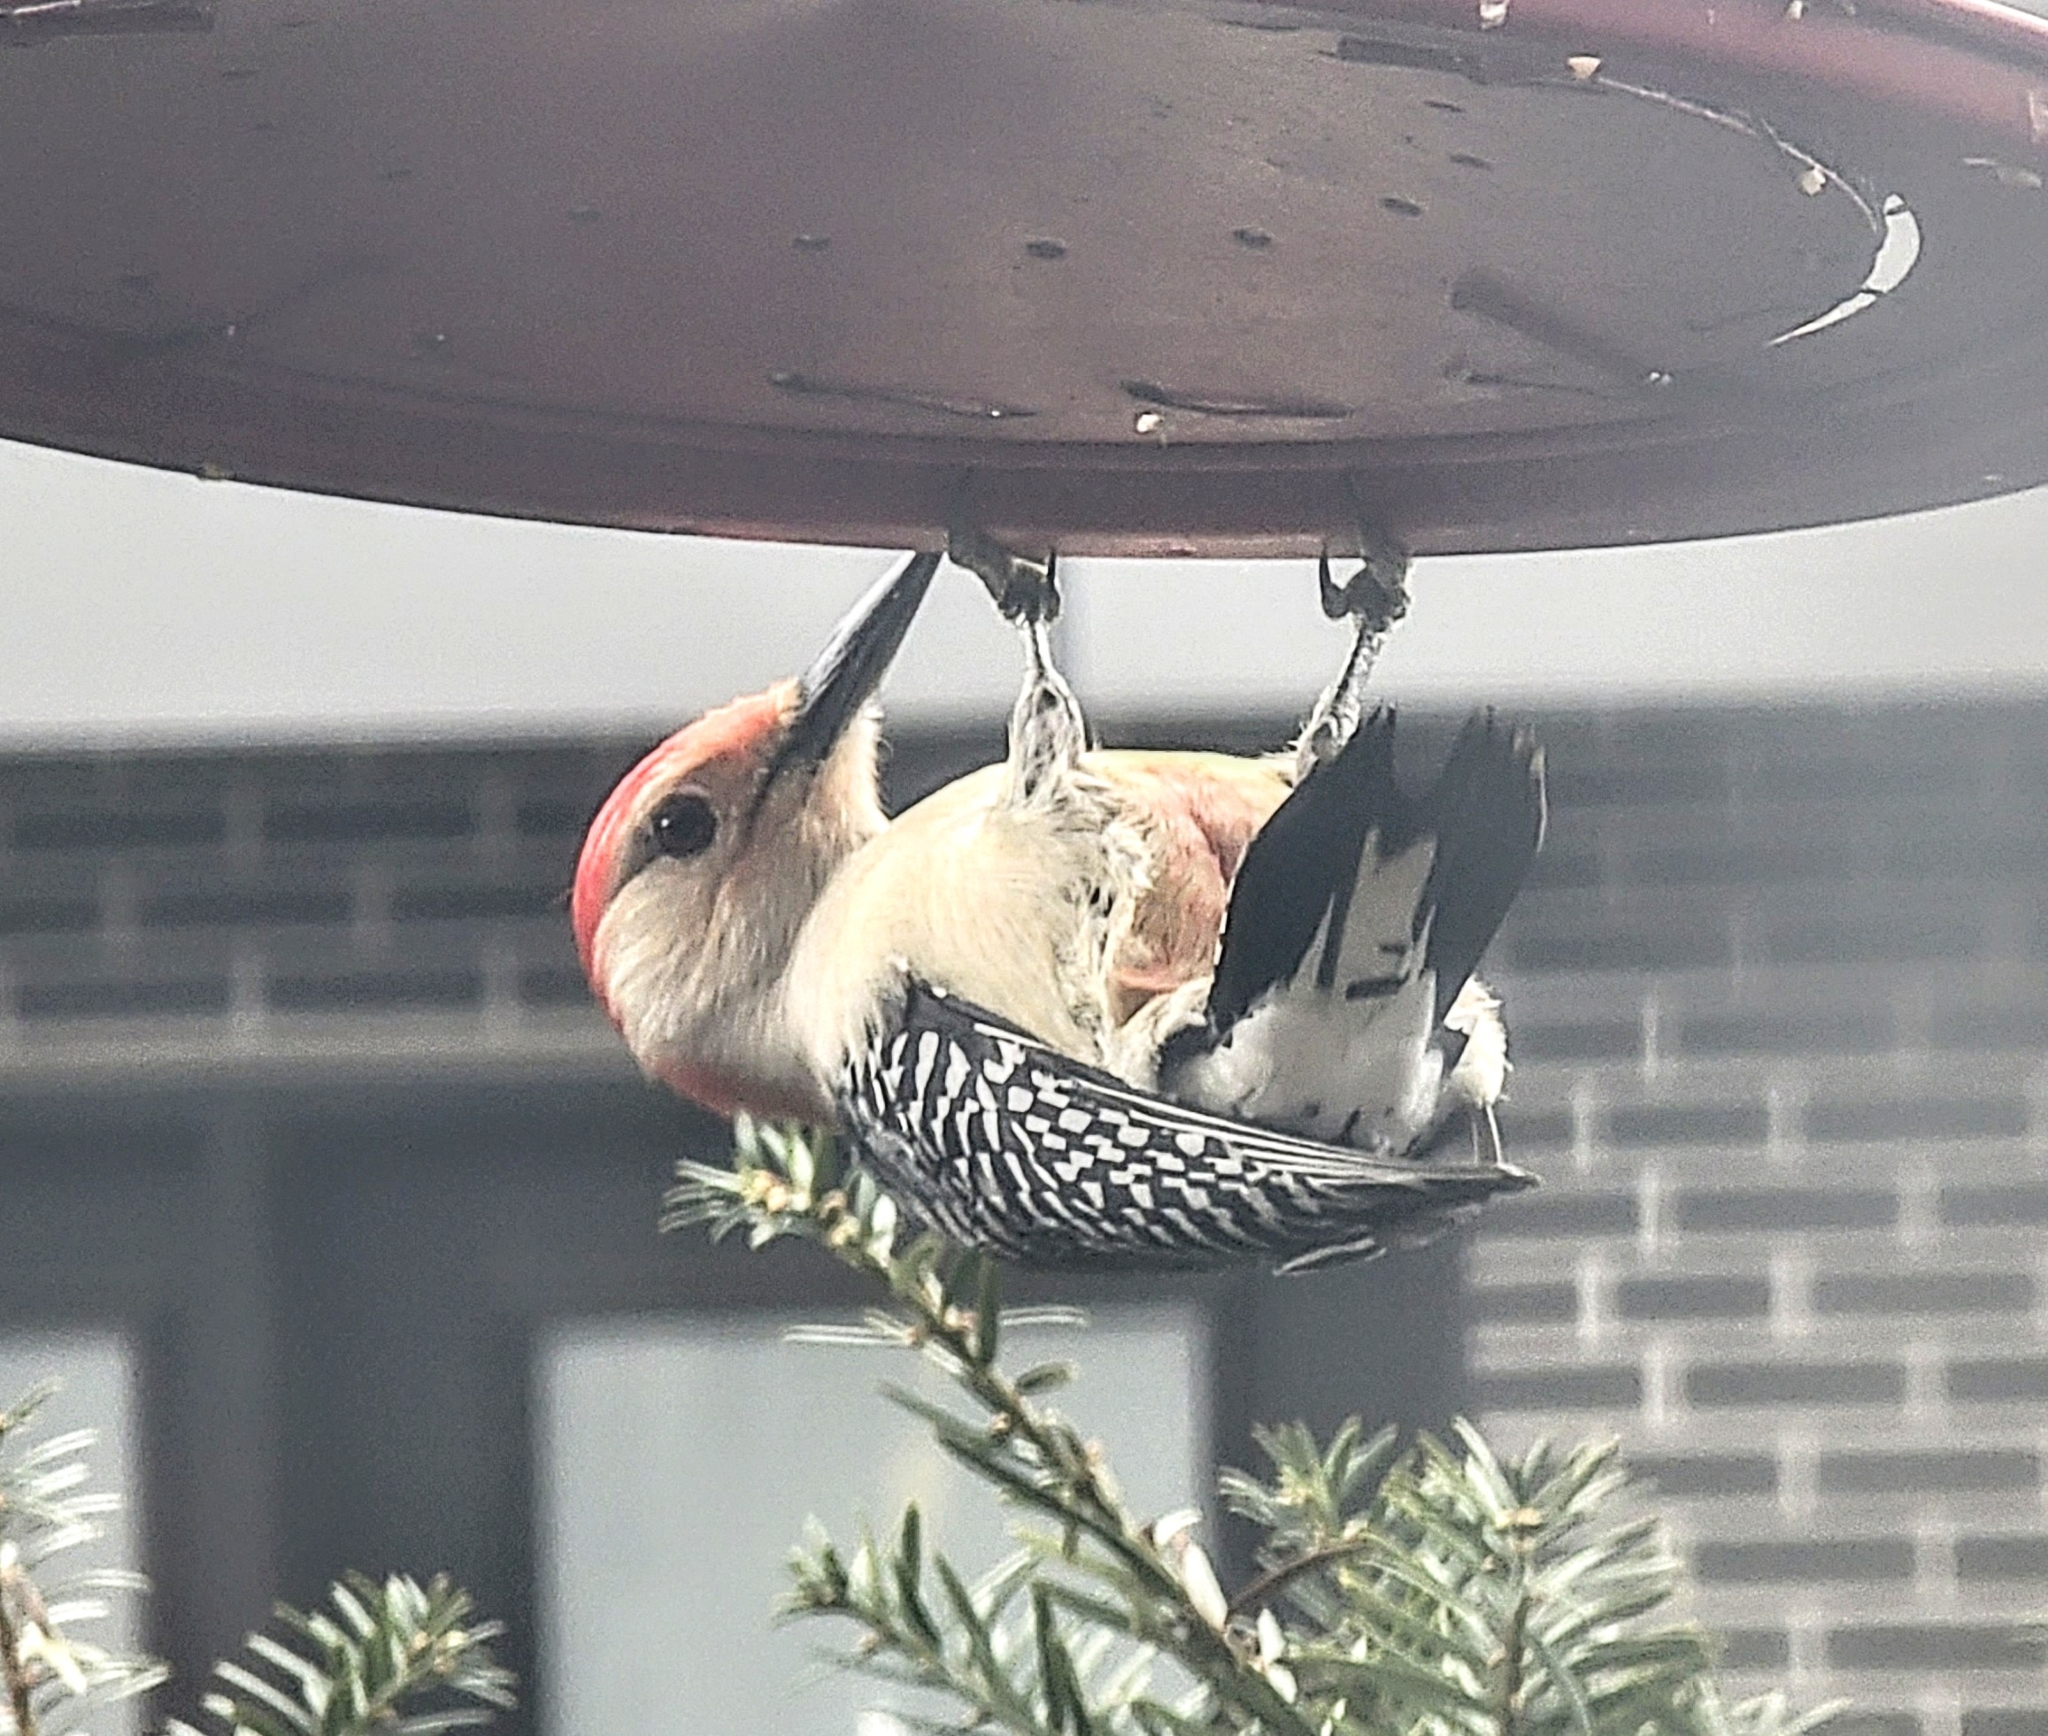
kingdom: Animalia
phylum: Chordata
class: Aves
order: Piciformes
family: Picidae
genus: Melanerpes
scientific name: Melanerpes carolinus
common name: Red-bellied woodpecker
